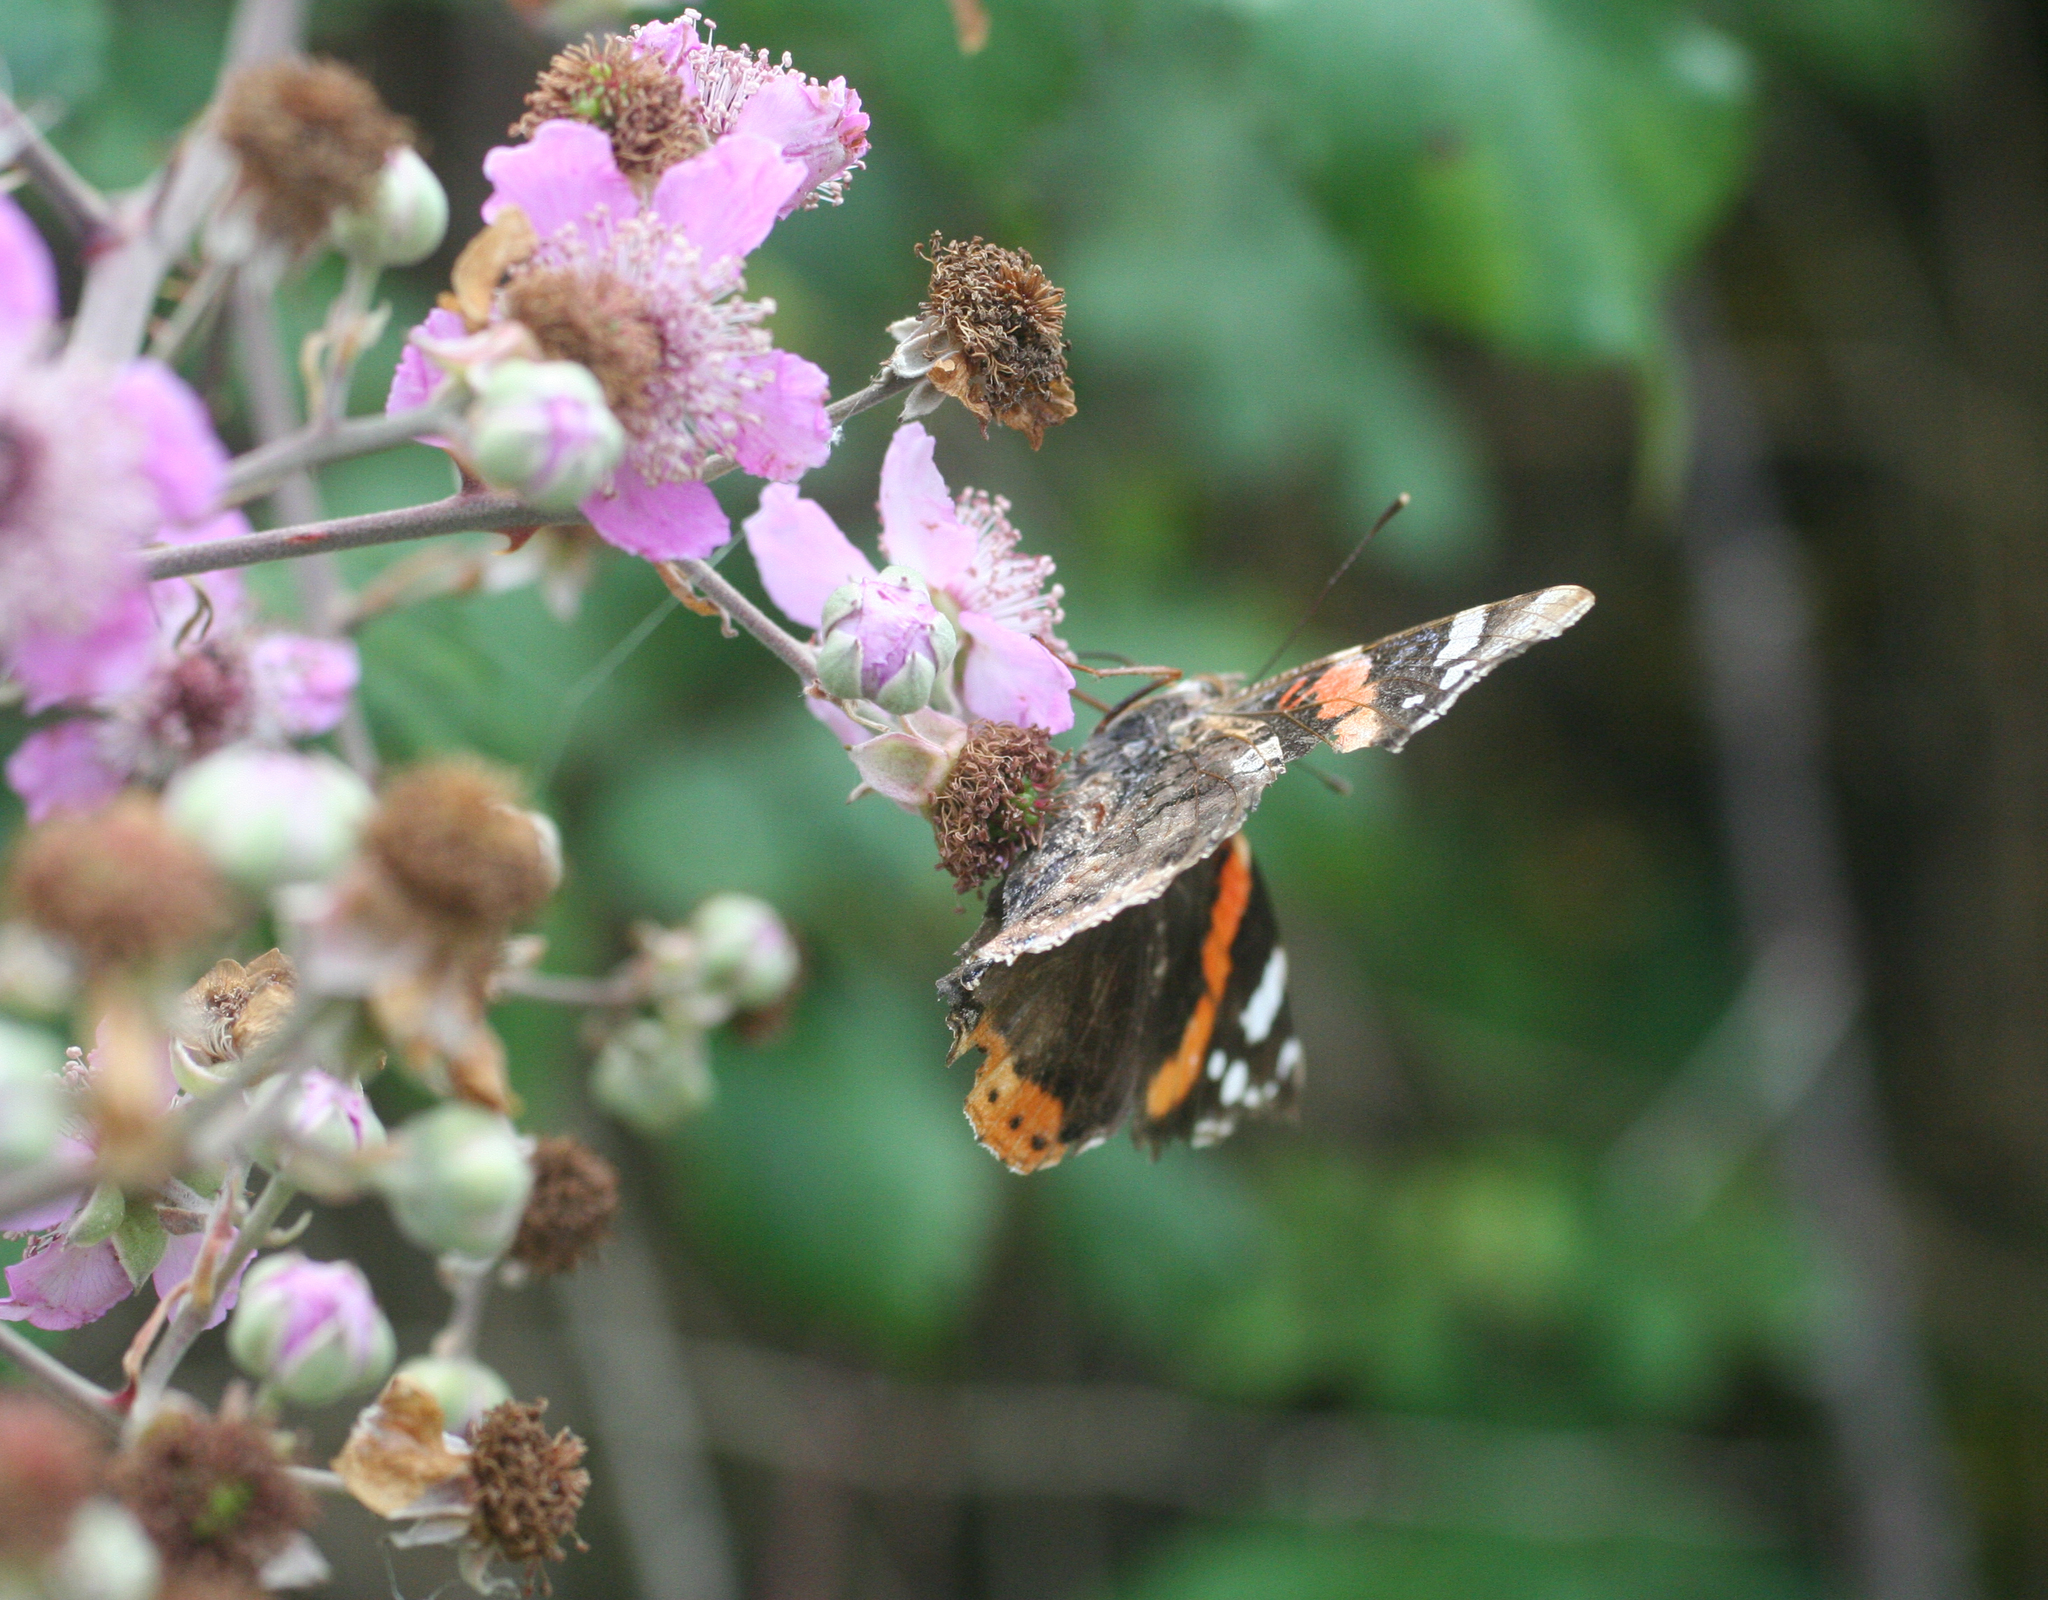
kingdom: Animalia
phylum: Arthropoda
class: Insecta
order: Lepidoptera
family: Nymphalidae
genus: Vanessa
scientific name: Vanessa atalanta
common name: Red admiral
